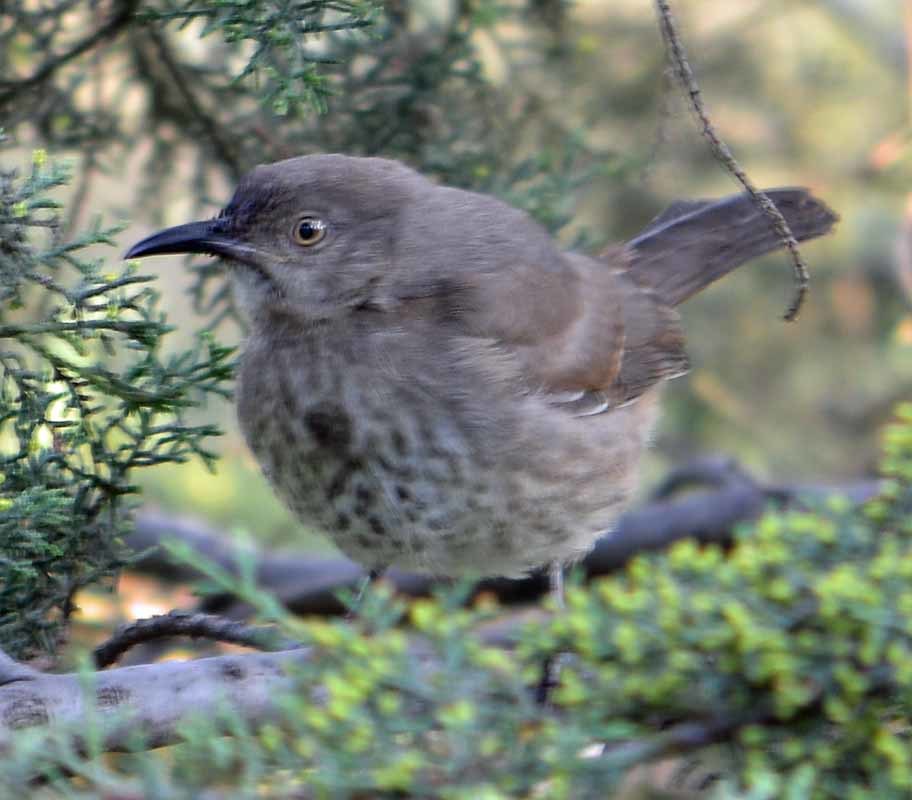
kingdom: Animalia
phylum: Chordata
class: Aves
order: Passeriformes
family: Mimidae
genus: Toxostoma
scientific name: Toxostoma curvirostre
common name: Curve-billed thrasher
